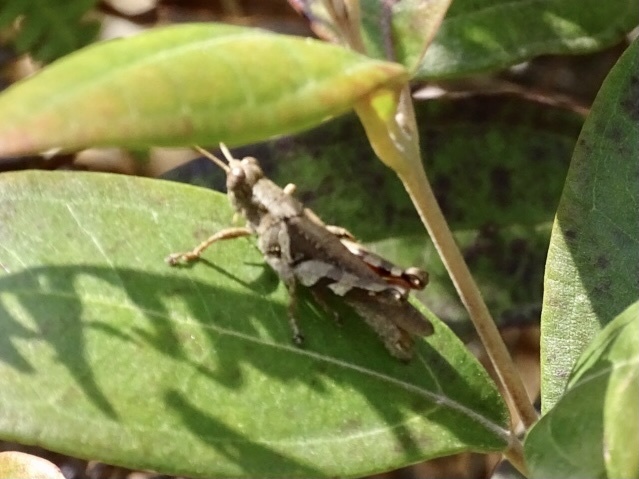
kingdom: Animalia
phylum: Arthropoda
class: Insecta
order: Orthoptera
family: Acrididae
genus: Xenocatantops
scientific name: Xenocatantops humile
